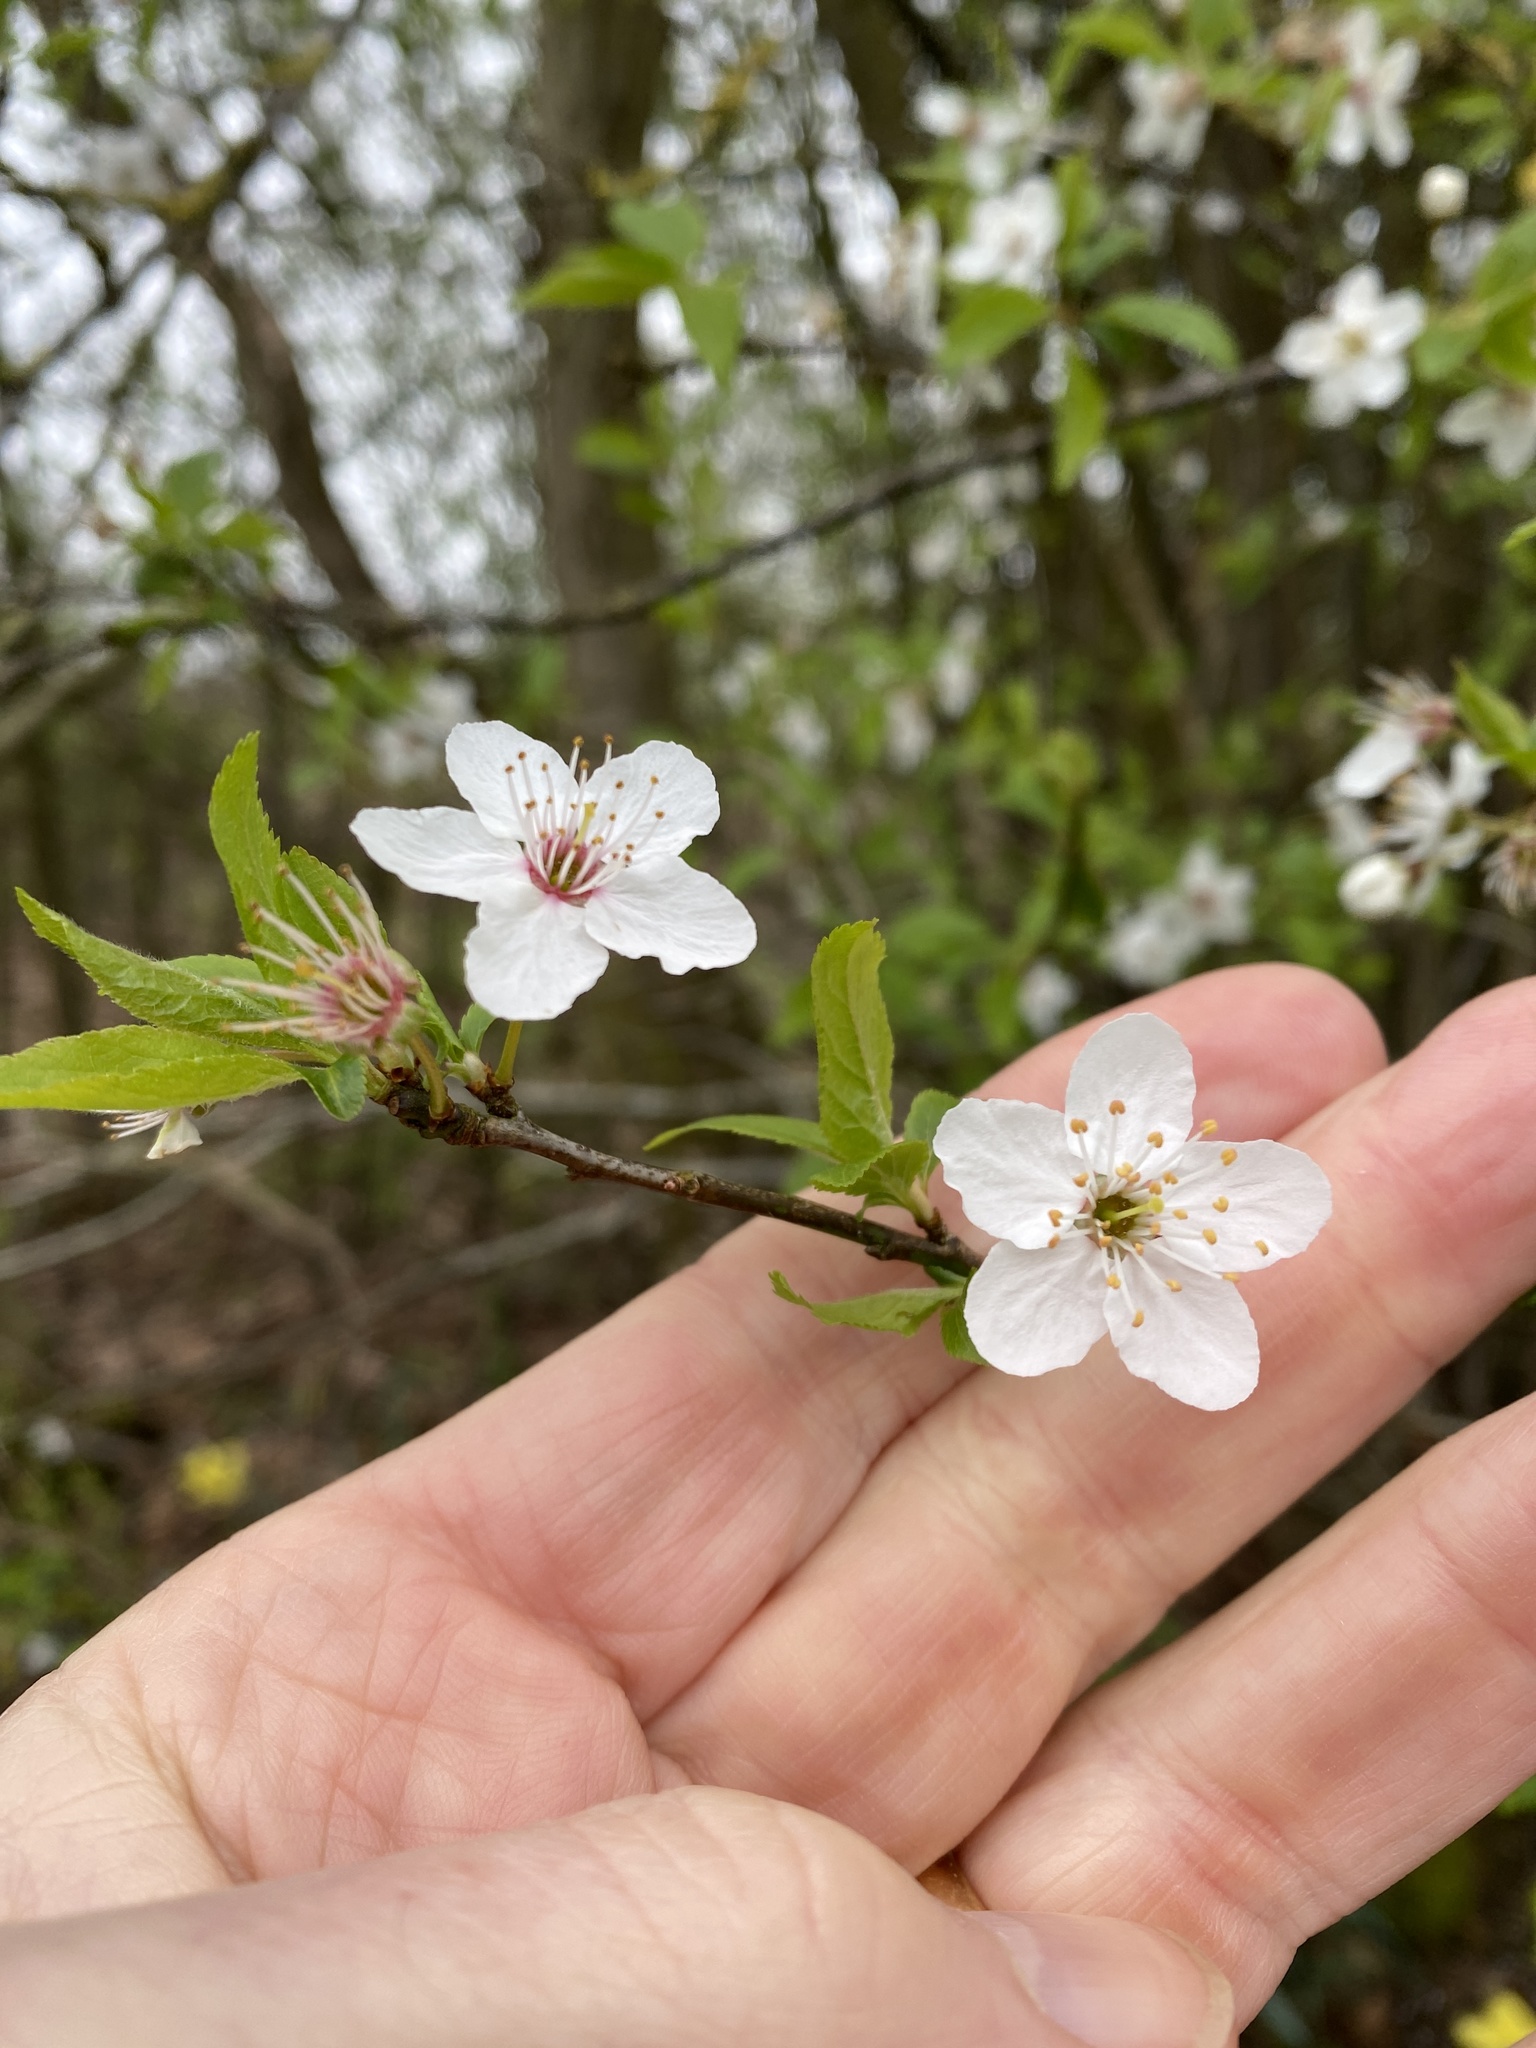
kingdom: Plantae
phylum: Tracheophyta
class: Magnoliopsida
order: Rosales
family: Rosaceae
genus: Prunus
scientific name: Prunus cerasifera
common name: Cherry plum
